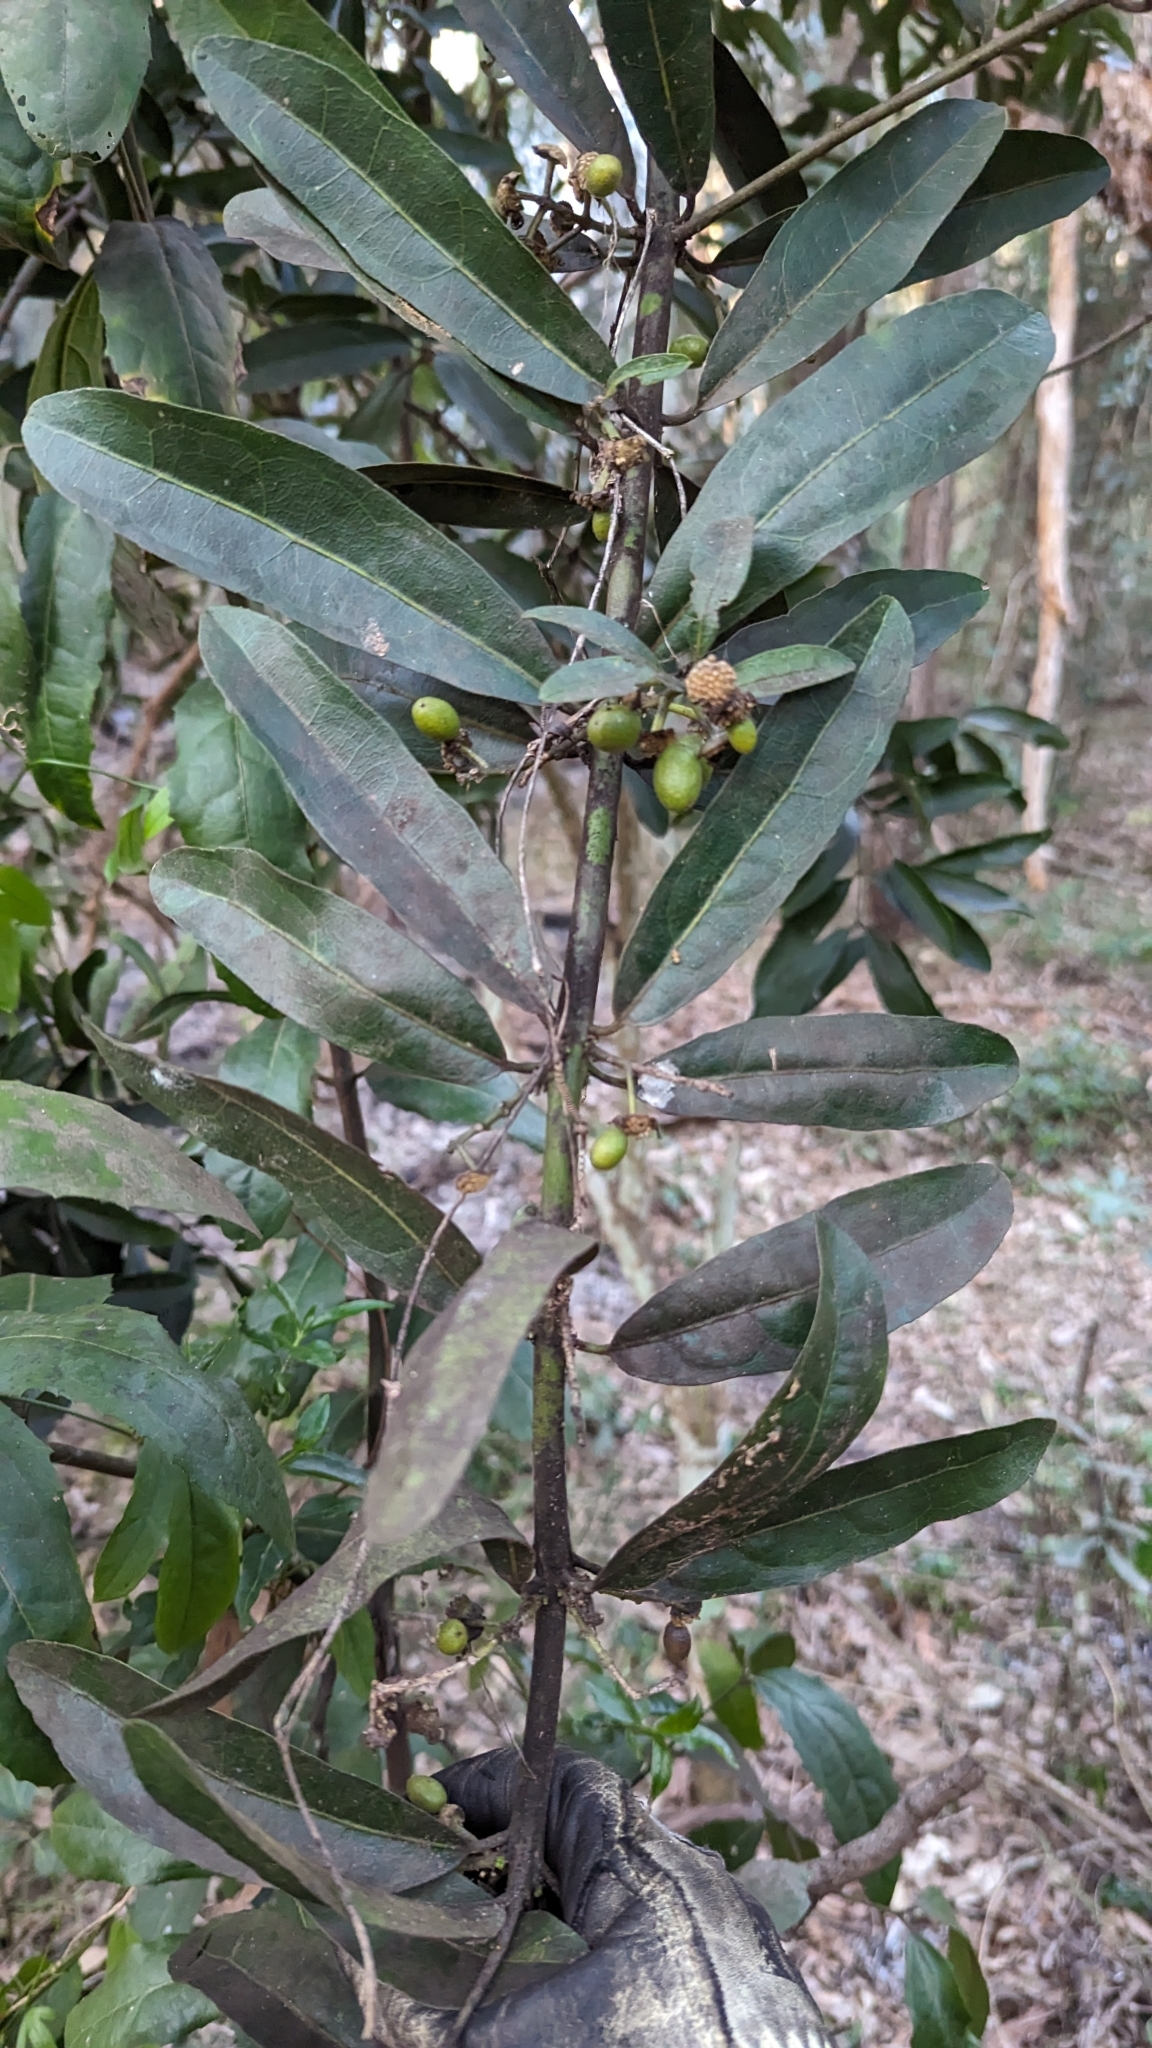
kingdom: Plantae
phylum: Tracheophyta
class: Magnoliopsida
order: Laurales
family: Monimiaceae
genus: Wilkiea
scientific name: Wilkiea hugeliana
